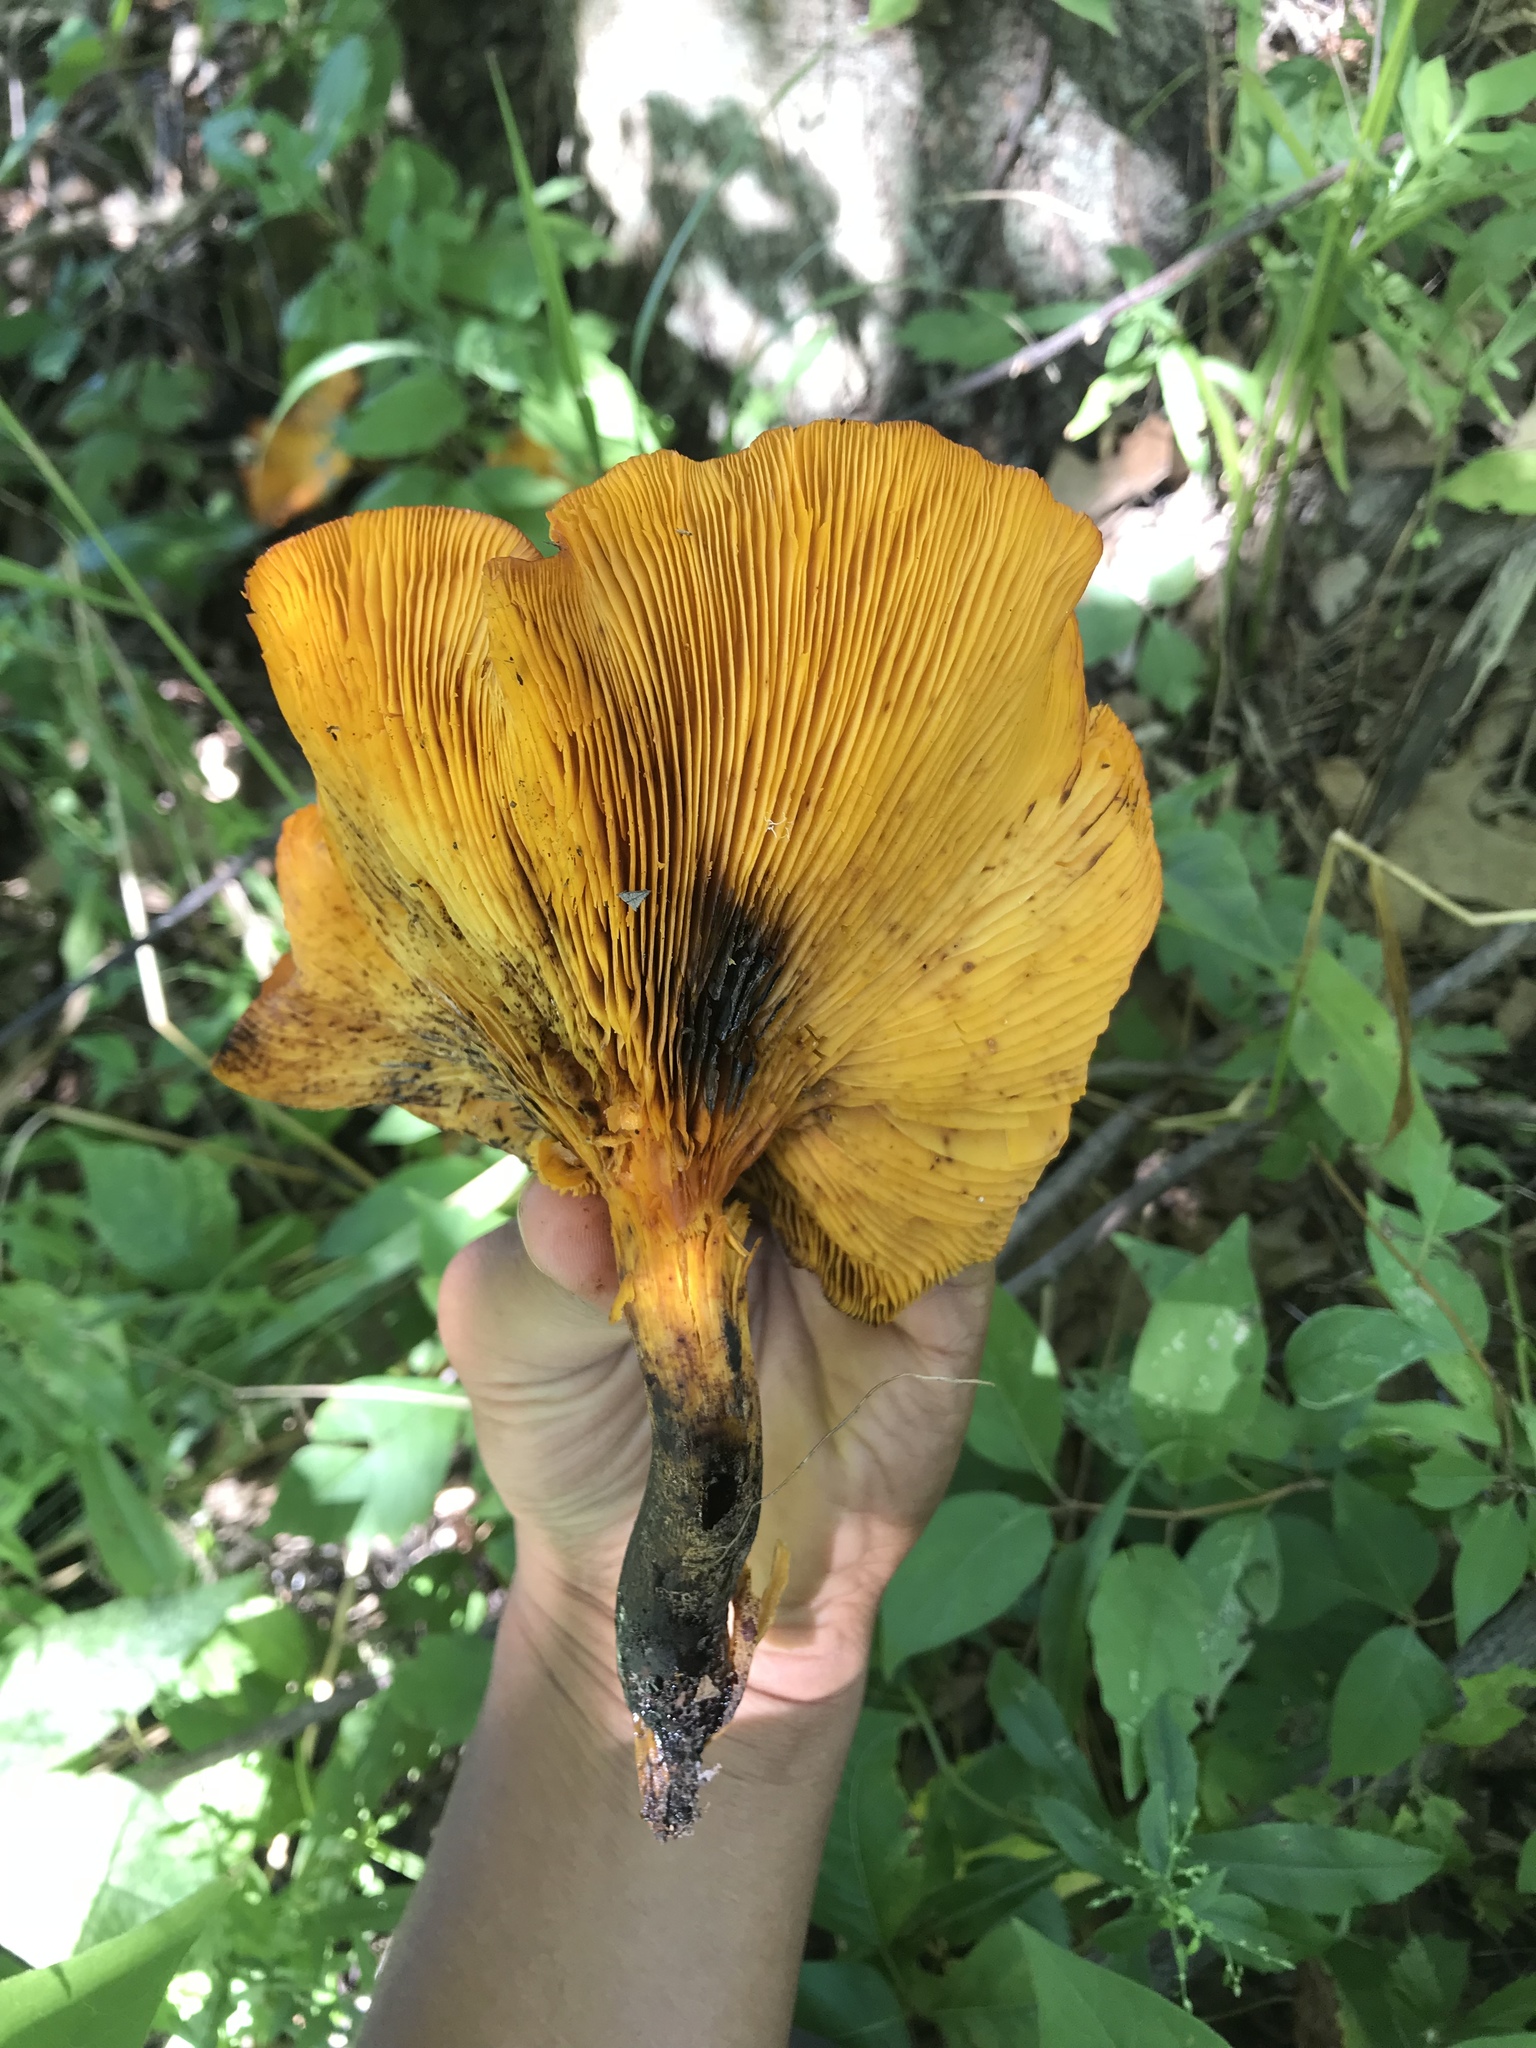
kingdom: Fungi
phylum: Basidiomycota
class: Agaricomycetes
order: Agaricales
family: Omphalotaceae
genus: Omphalotus
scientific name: Omphalotus illudens
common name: Jack o lantern
